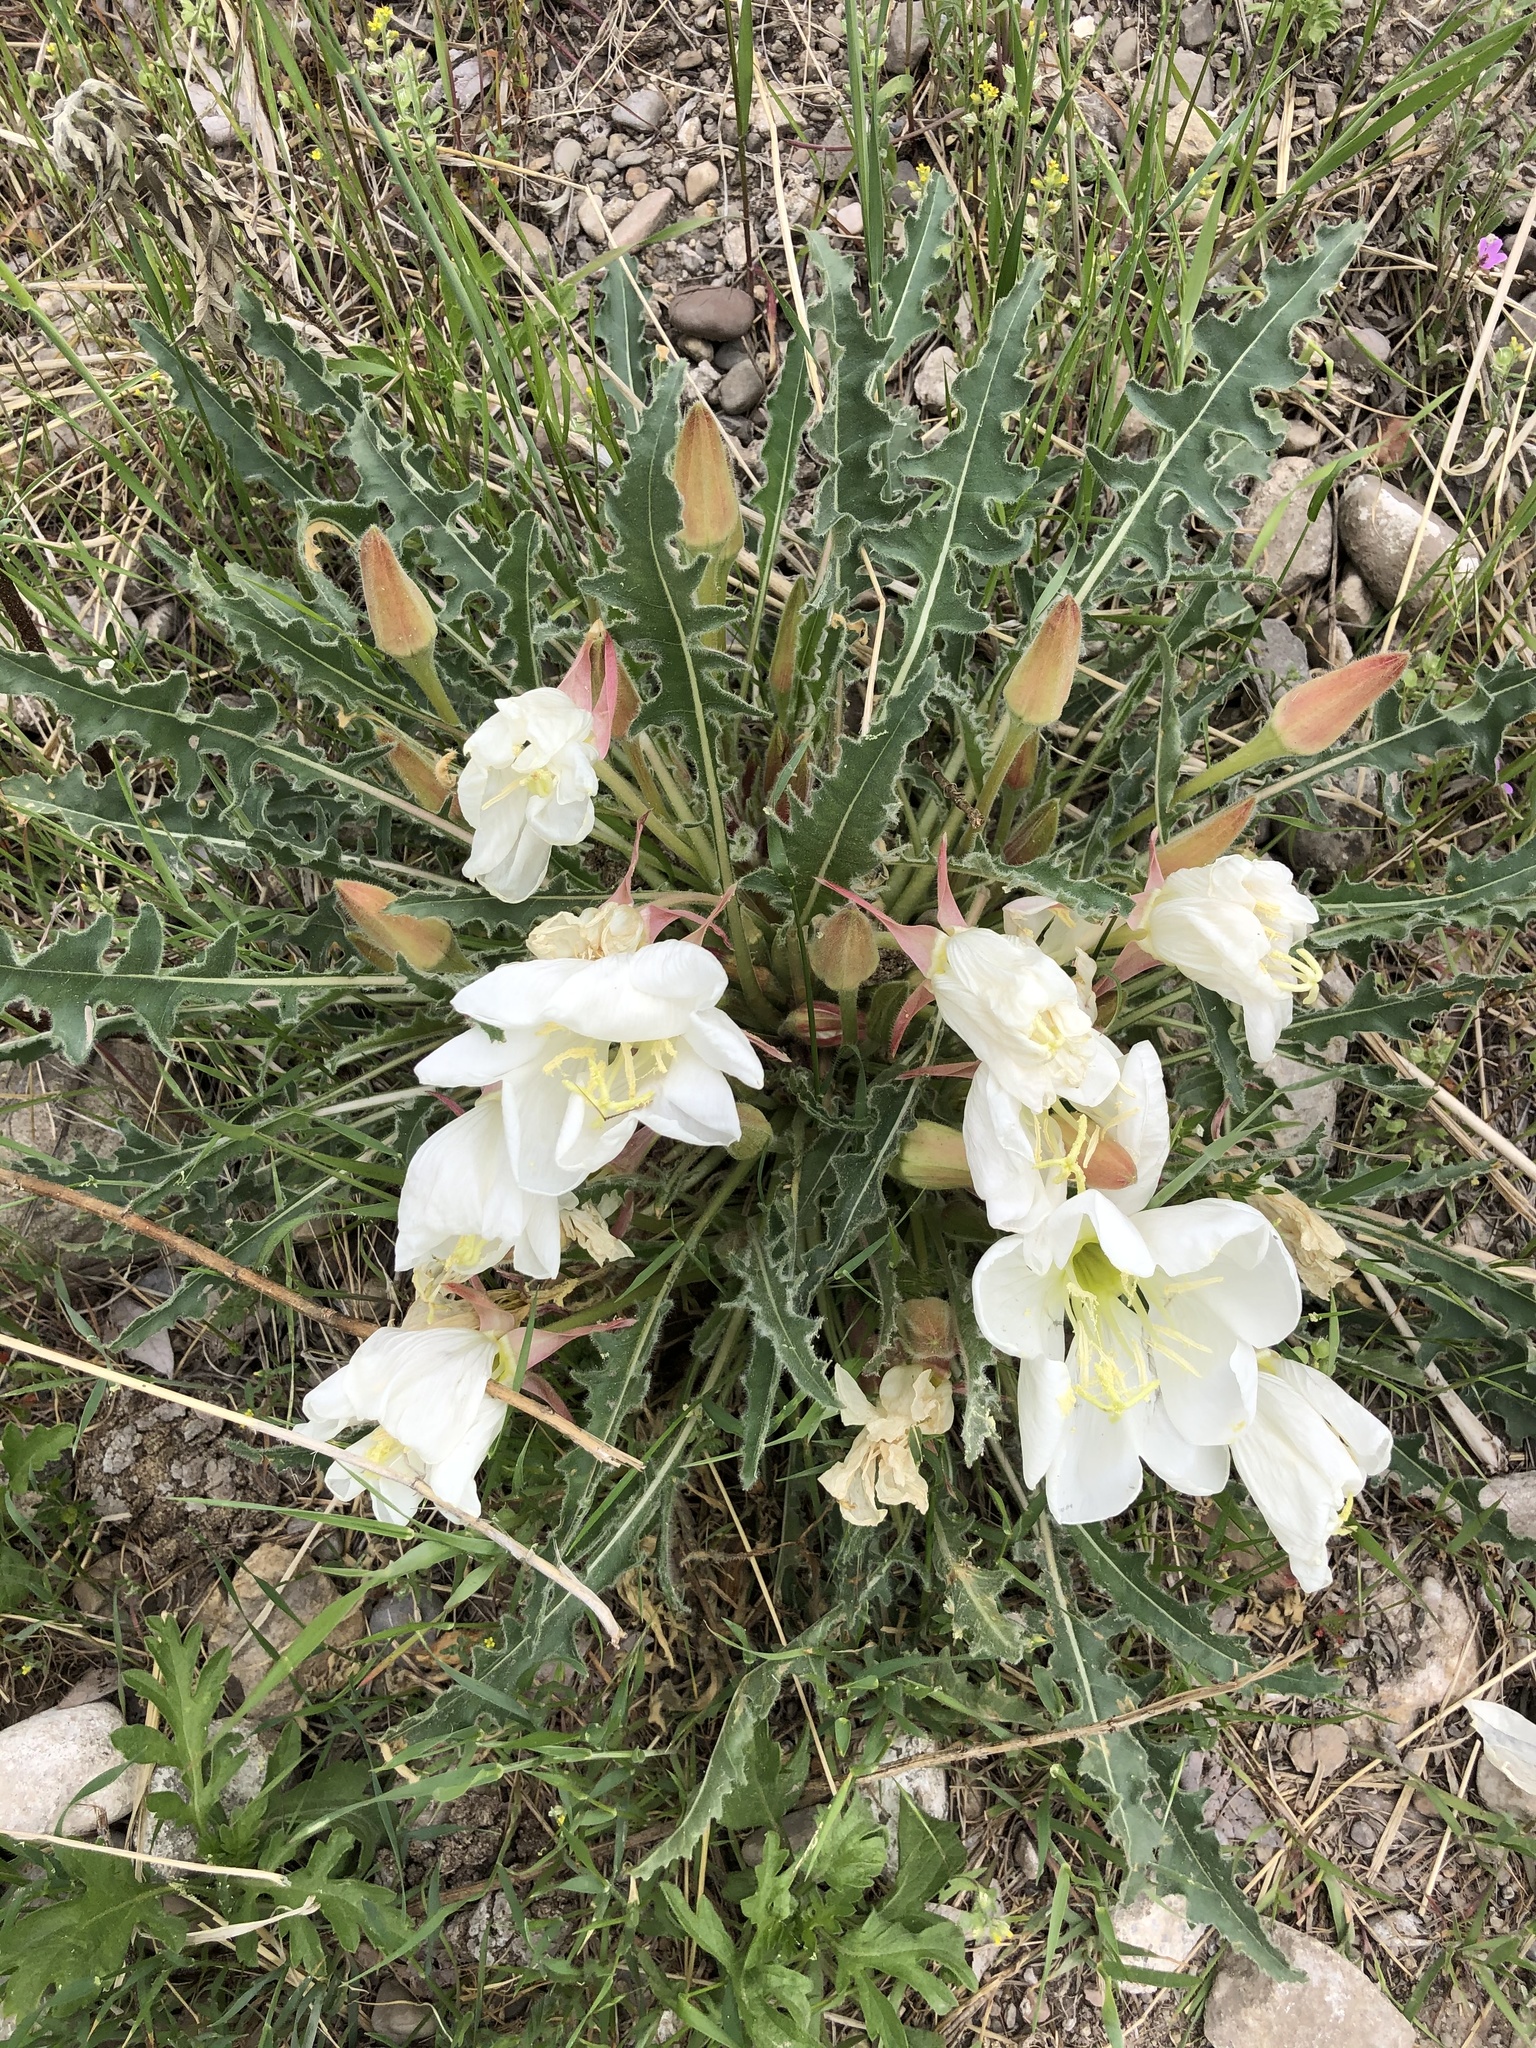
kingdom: Plantae
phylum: Tracheophyta
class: Magnoliopsida
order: Myrtales
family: Onagraceae
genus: Oenothera
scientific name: Oenothera cespitosa
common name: Tufted evening-primrose
